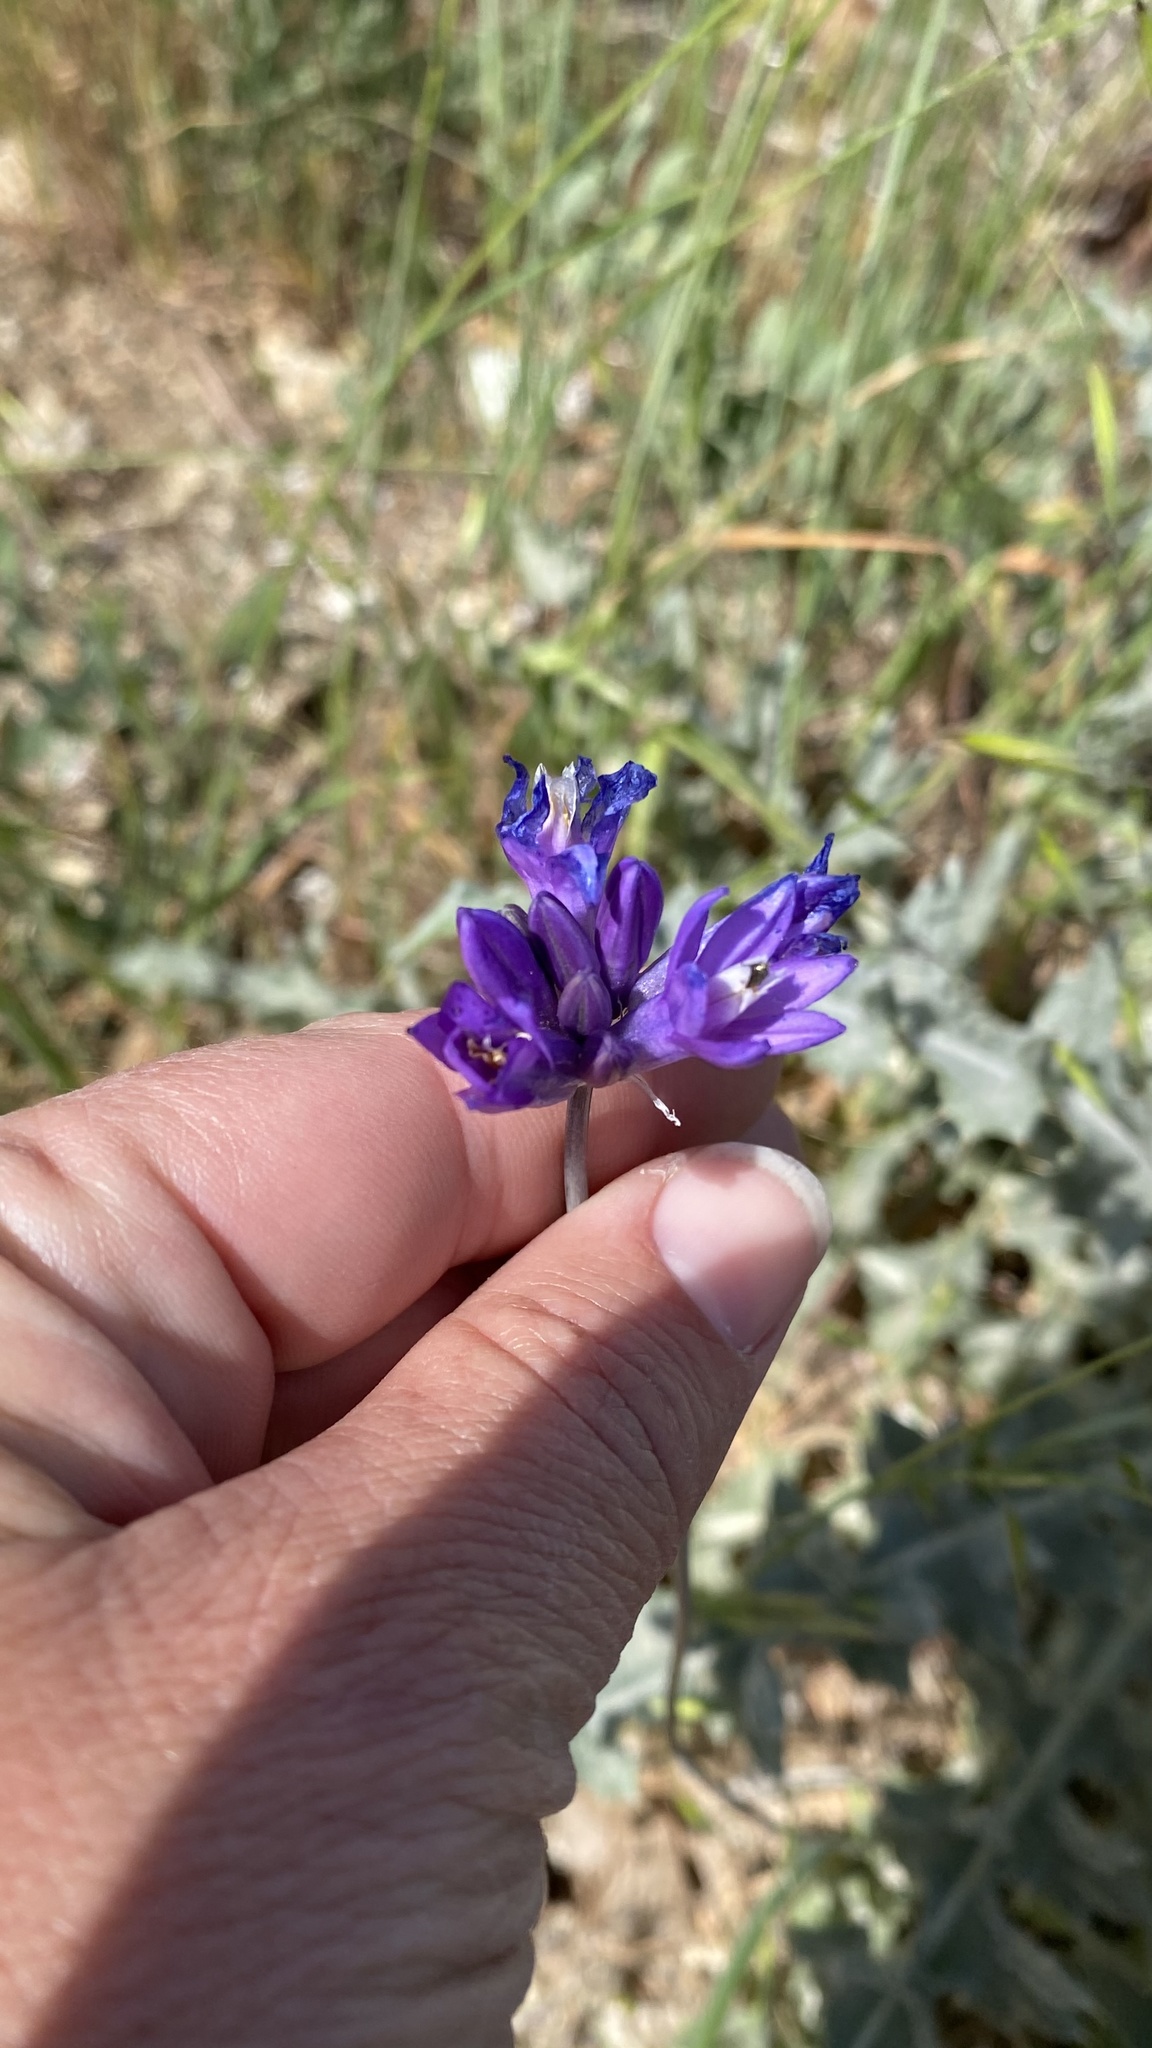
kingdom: Plantae
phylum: Tracheophyta
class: Liliopsida
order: Asparagales
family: Asparagaceae
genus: Dipterostemon
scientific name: Dipterostemon capitatus
